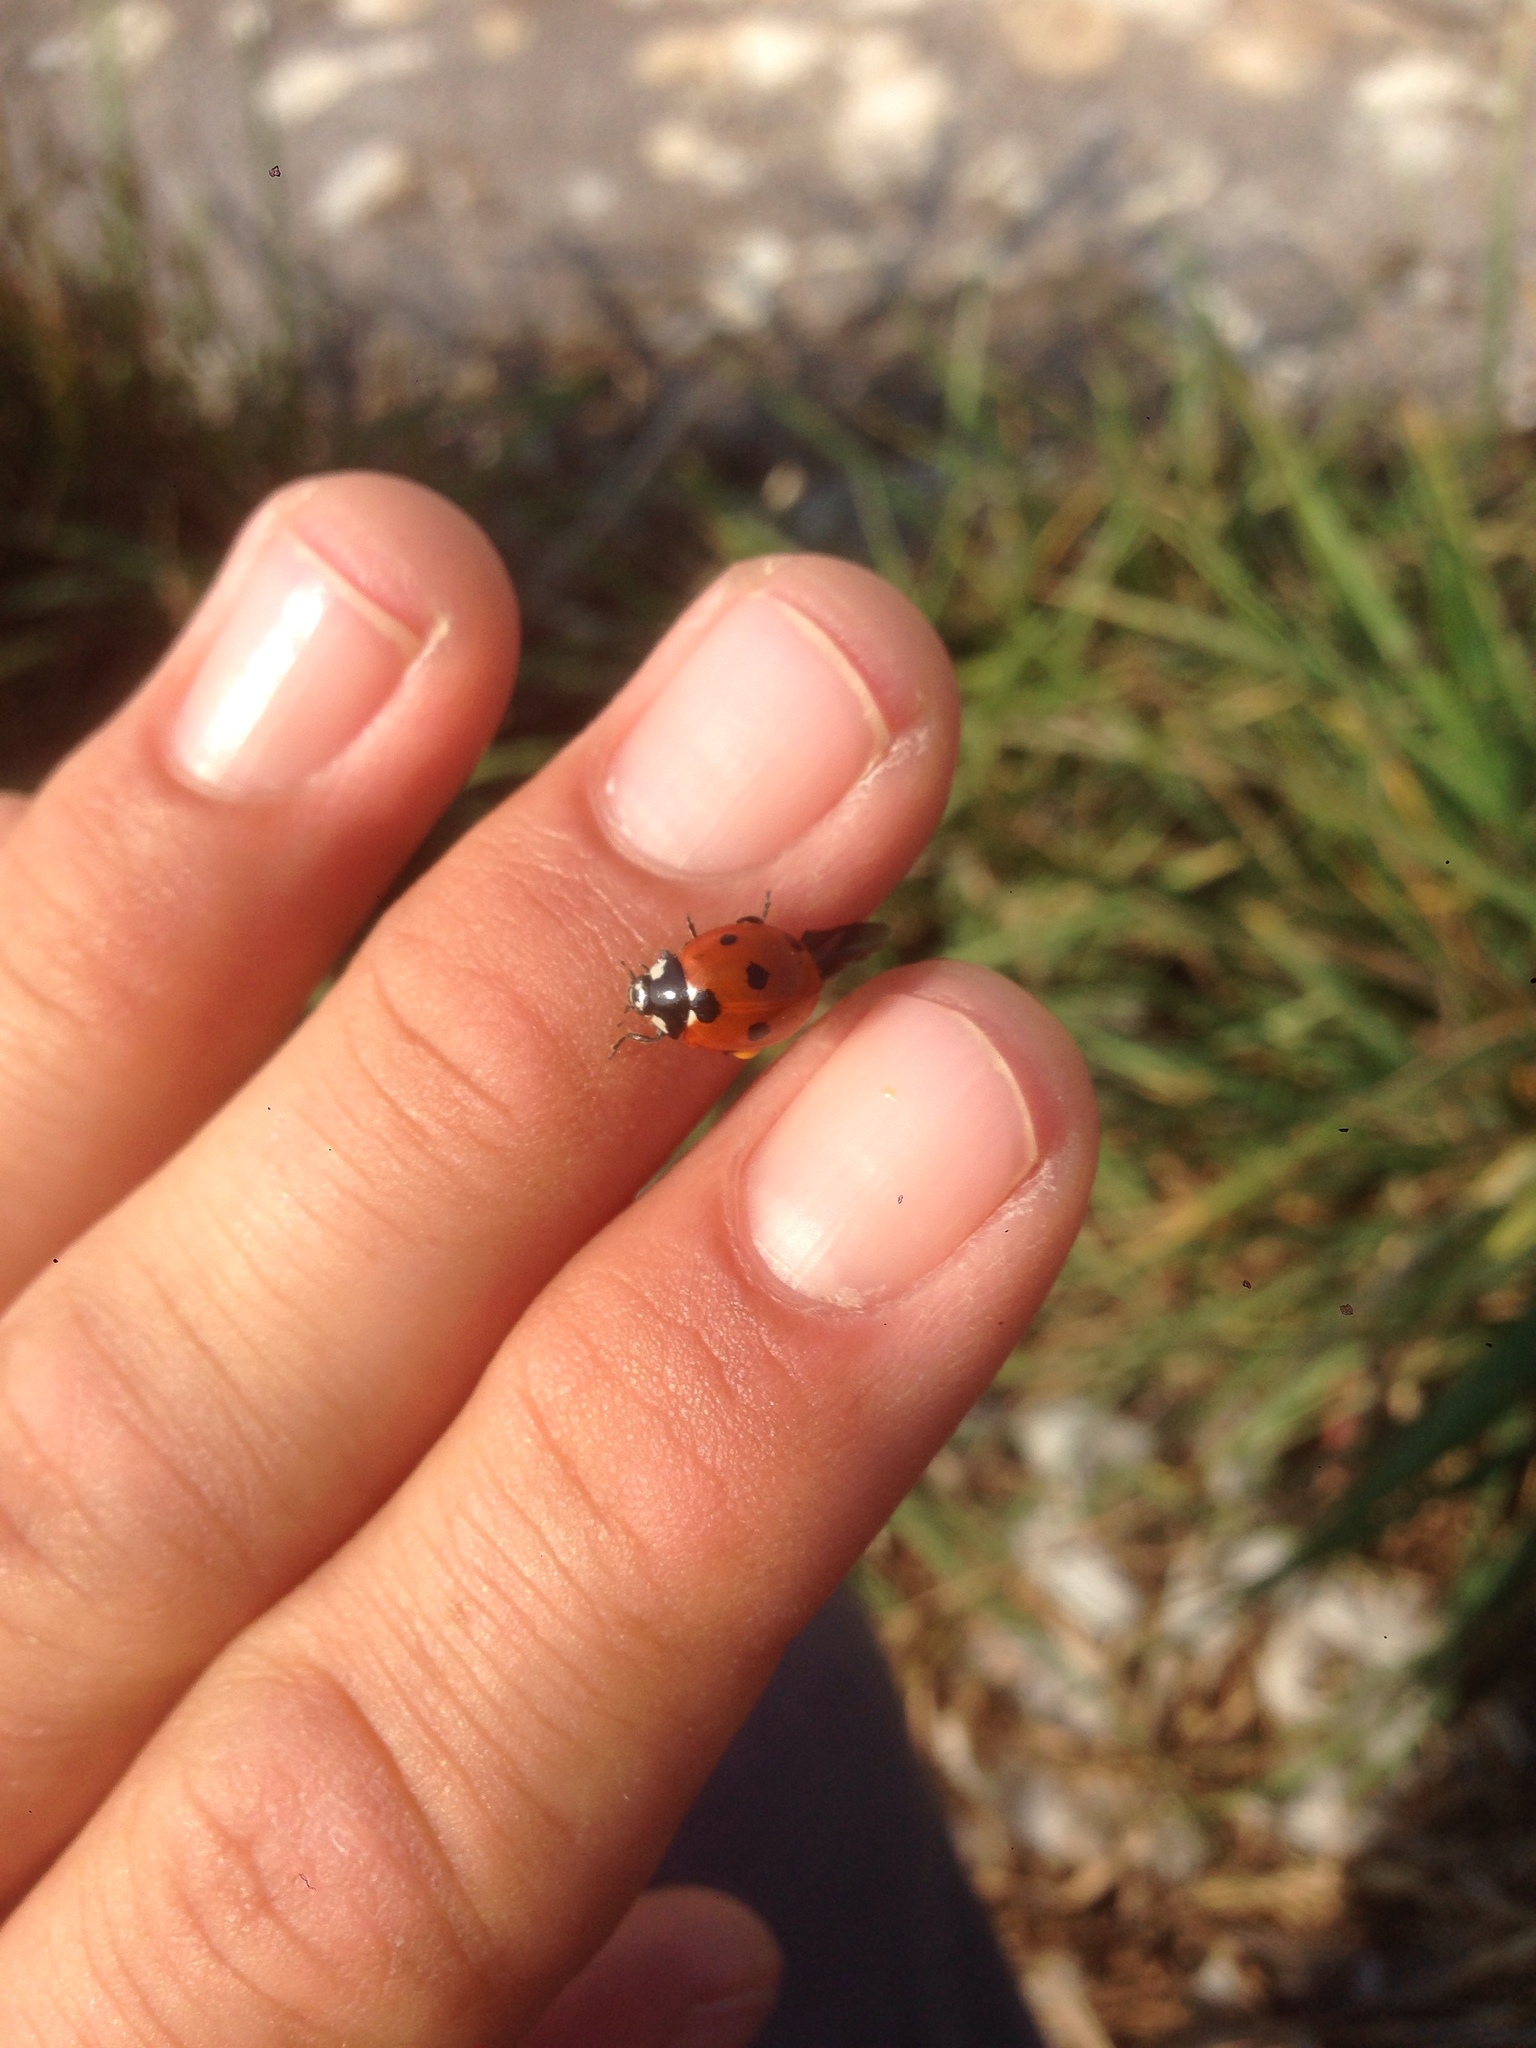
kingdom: Animalia
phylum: Arthropoda
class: Insecta
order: Coleoptera
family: Coccinellidae
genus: Coccinella
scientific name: Coccinella septempunctata
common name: Sevenspotted lady beetle
